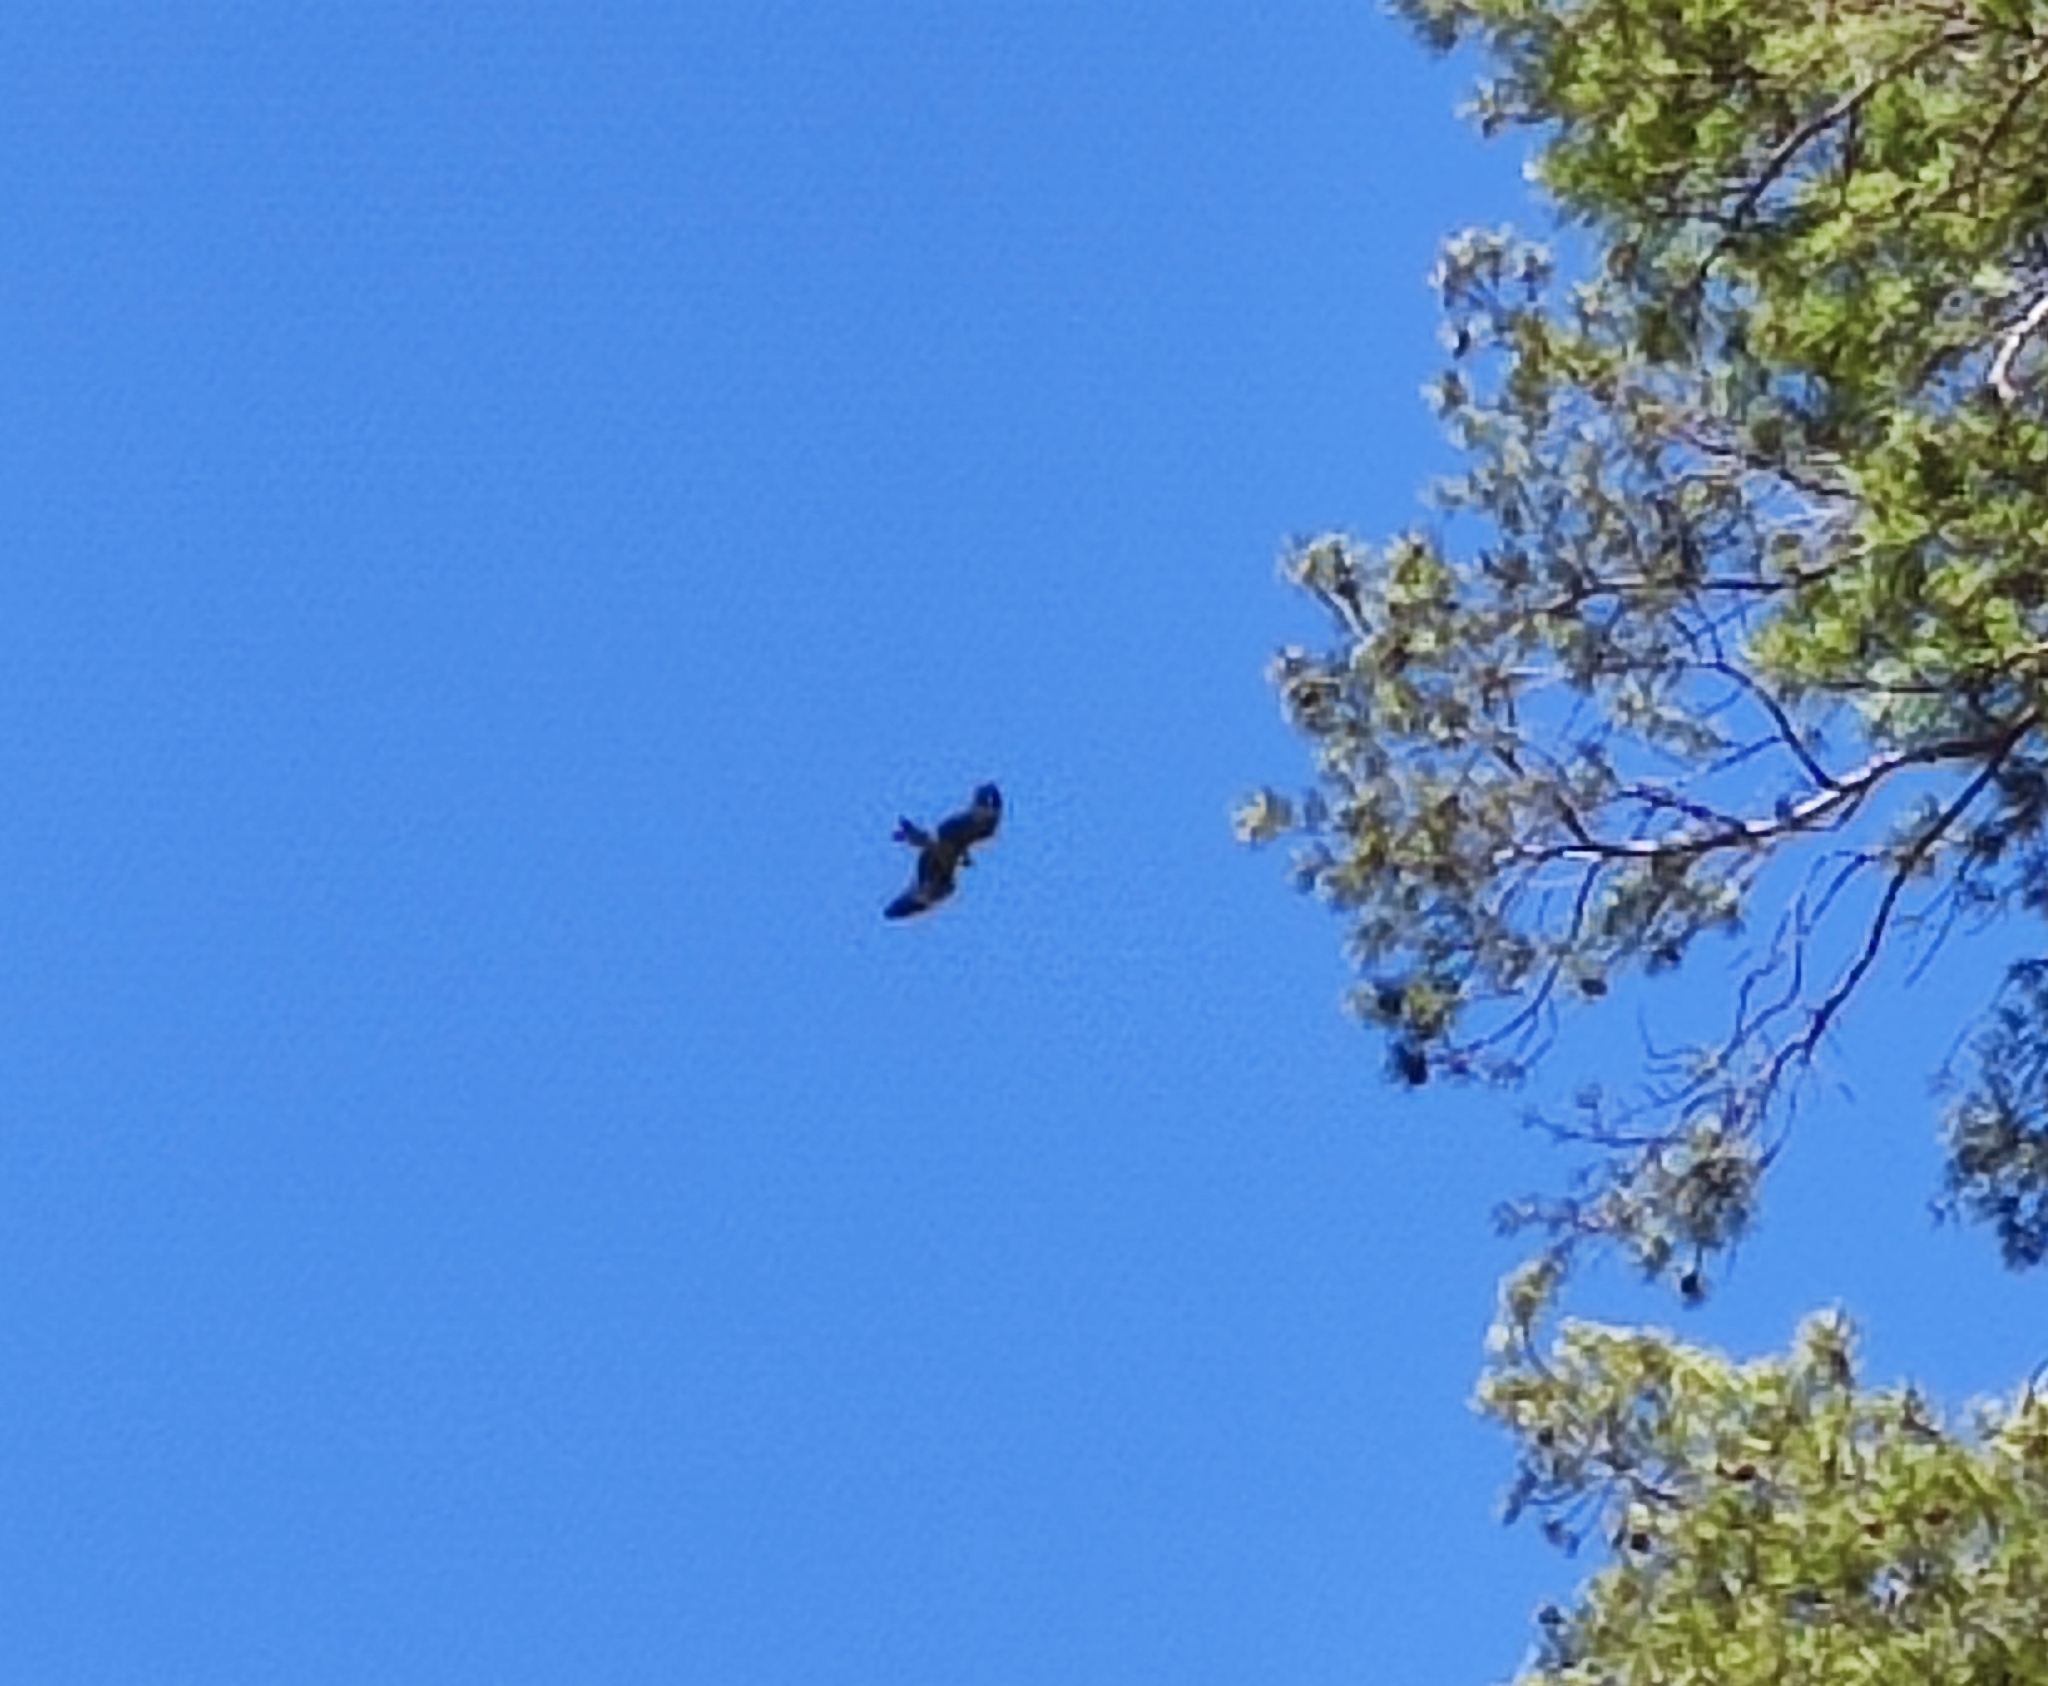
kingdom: Animalia
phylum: Chordata
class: Aves
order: Accipitriformes
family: Accipitridae
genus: Milvus
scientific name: Milvus migrans
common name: Black kite
